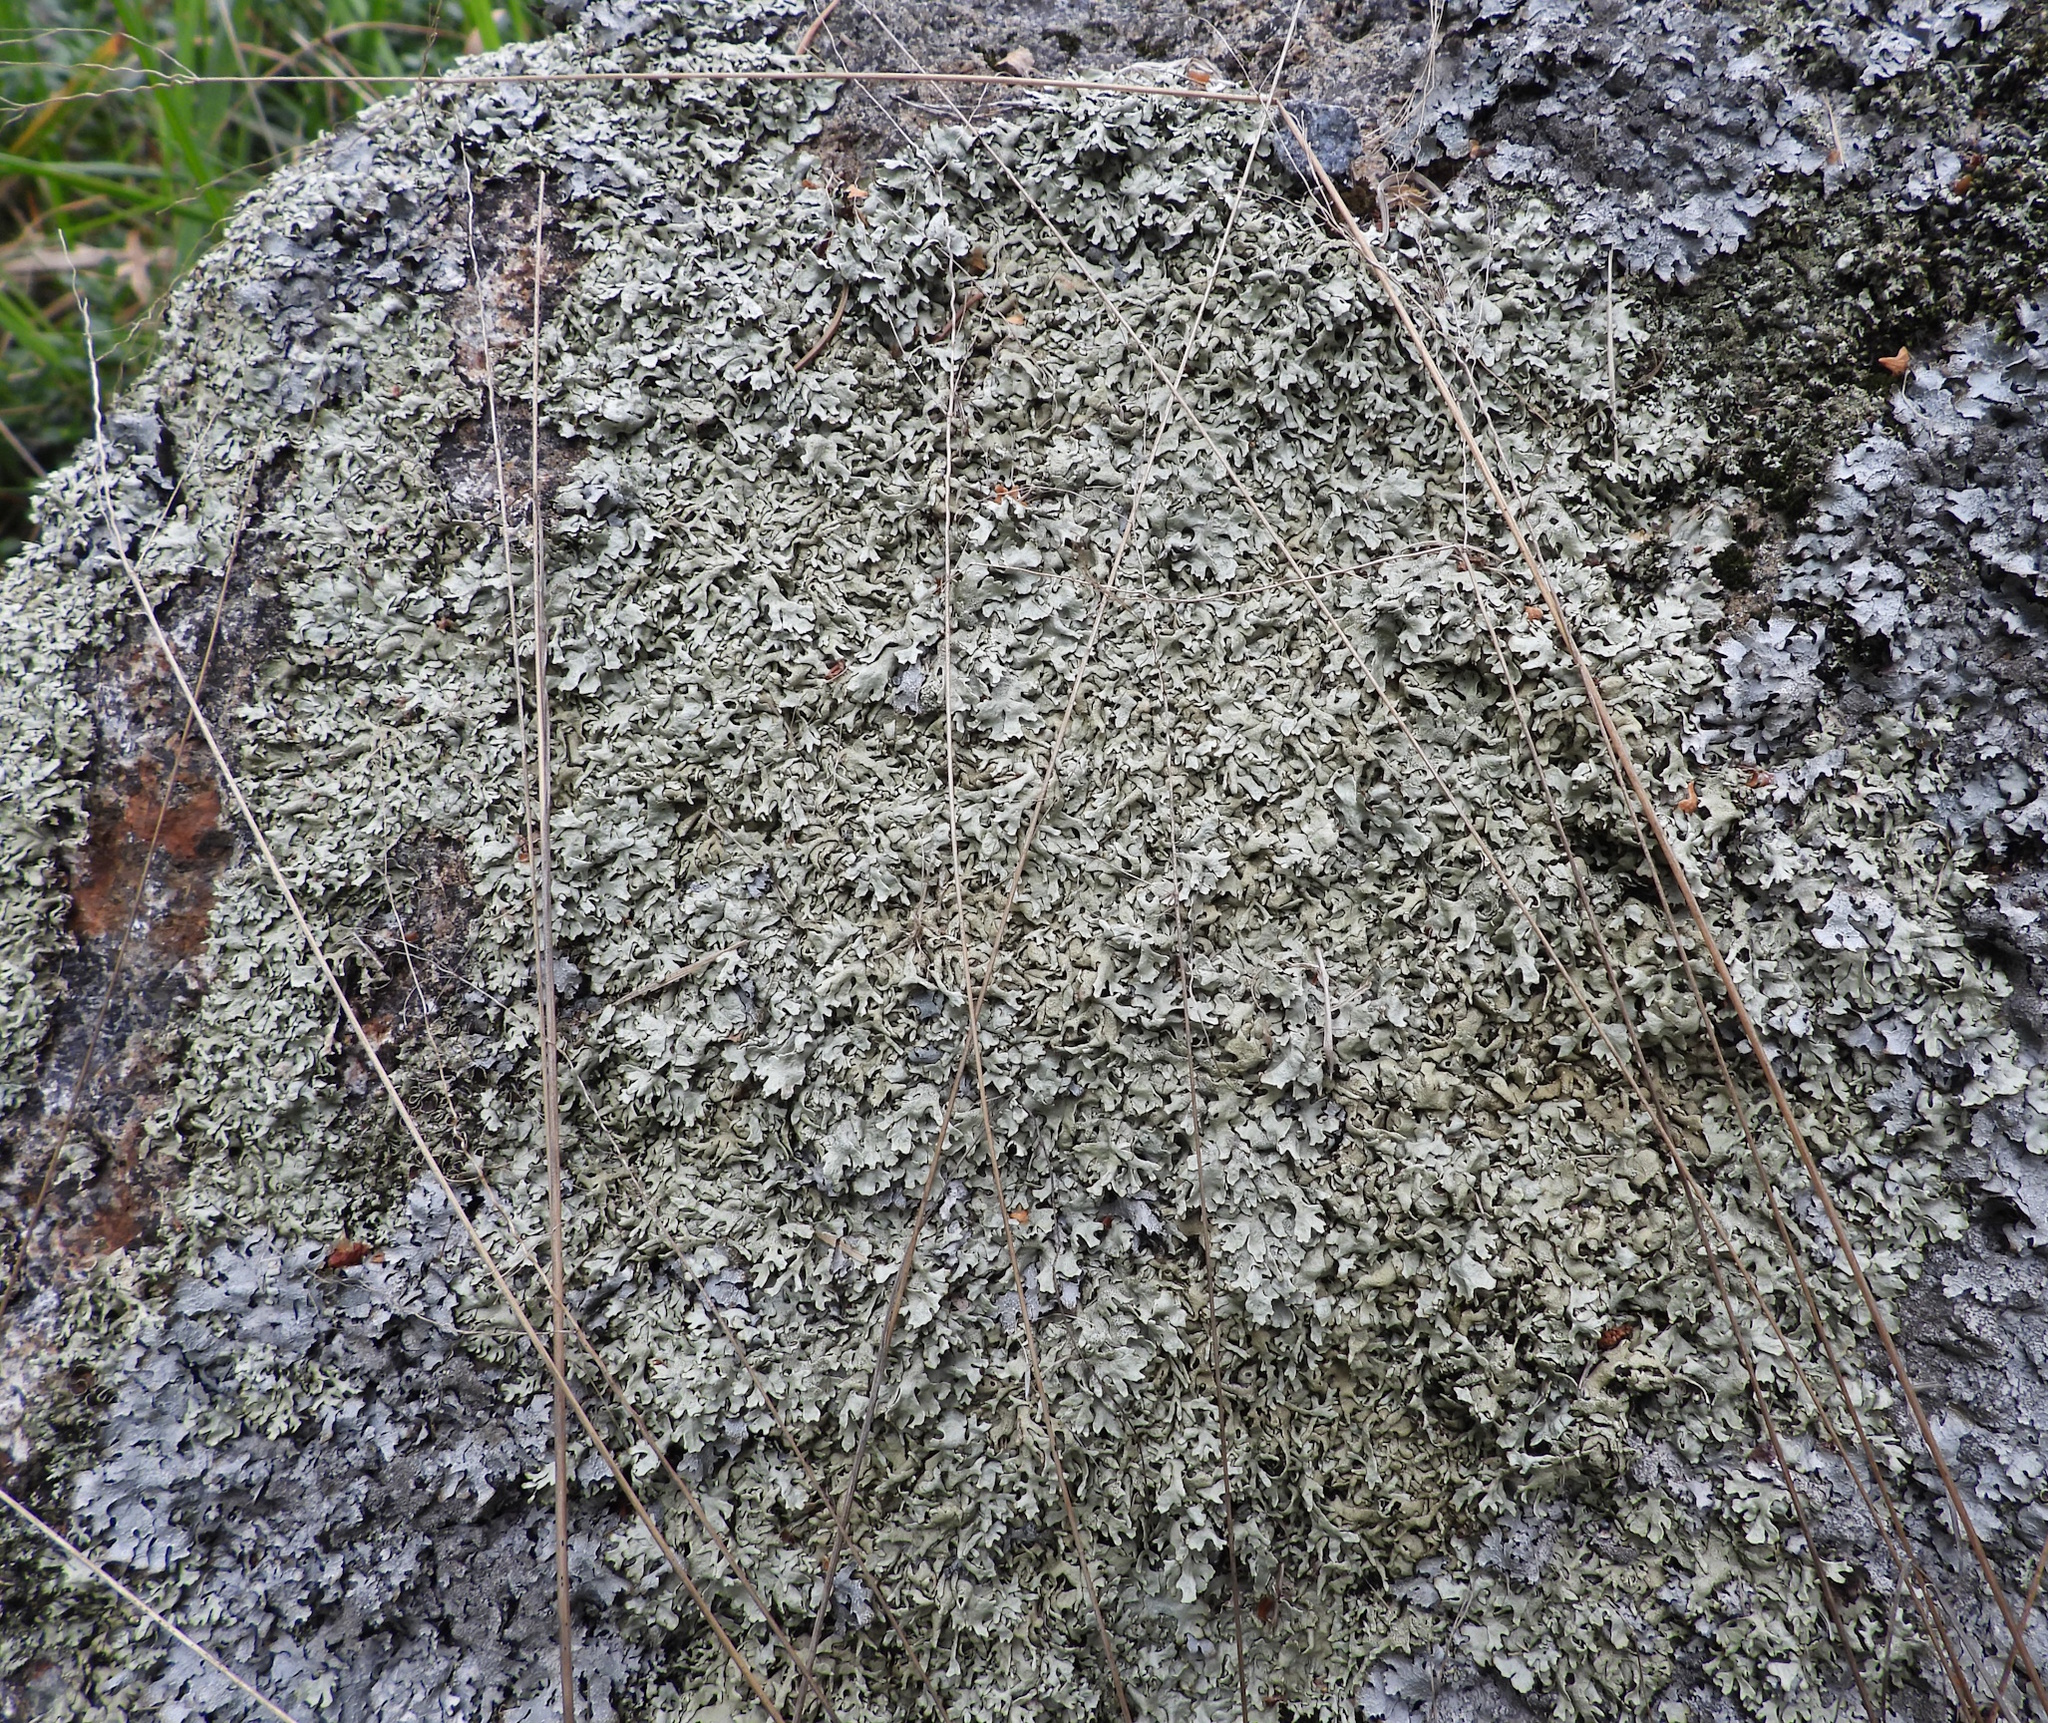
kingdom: Fungi
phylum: Ascomycota
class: Lecanoromycetes
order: Lecanorales
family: Parmeliaceae
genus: Xanthoparmelia
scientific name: Xanthoparmelia stenophylla
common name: Shingled rock shield
